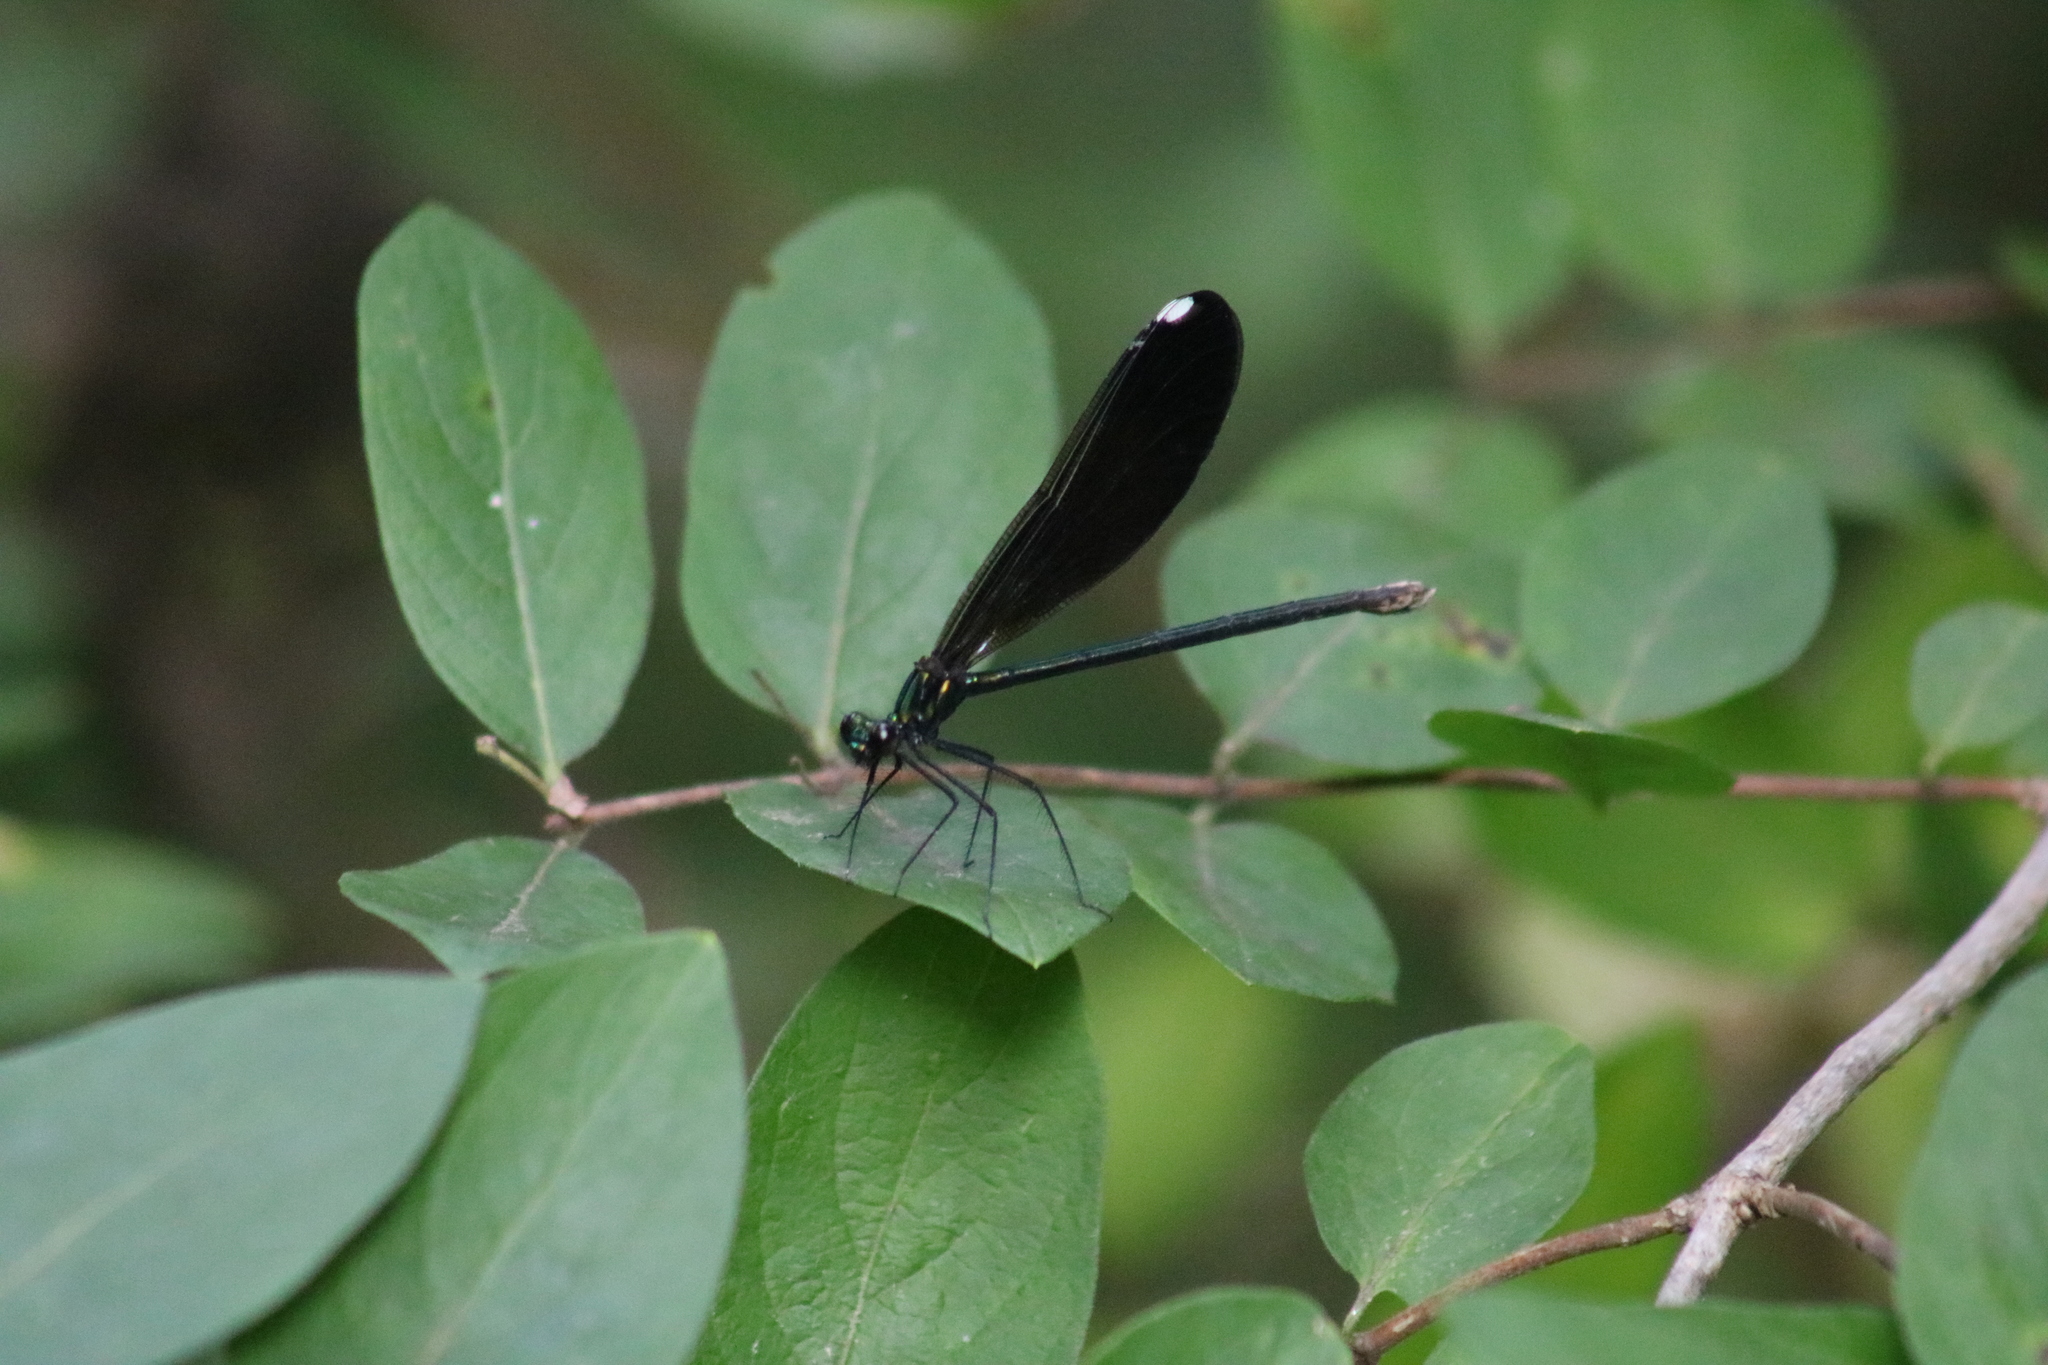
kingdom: Animalia
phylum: Arthropoda
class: Insecta
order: Odonata
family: Calopterygidae
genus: Calopteryx
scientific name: Calopteryx maculata
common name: Ebony jewelwing
